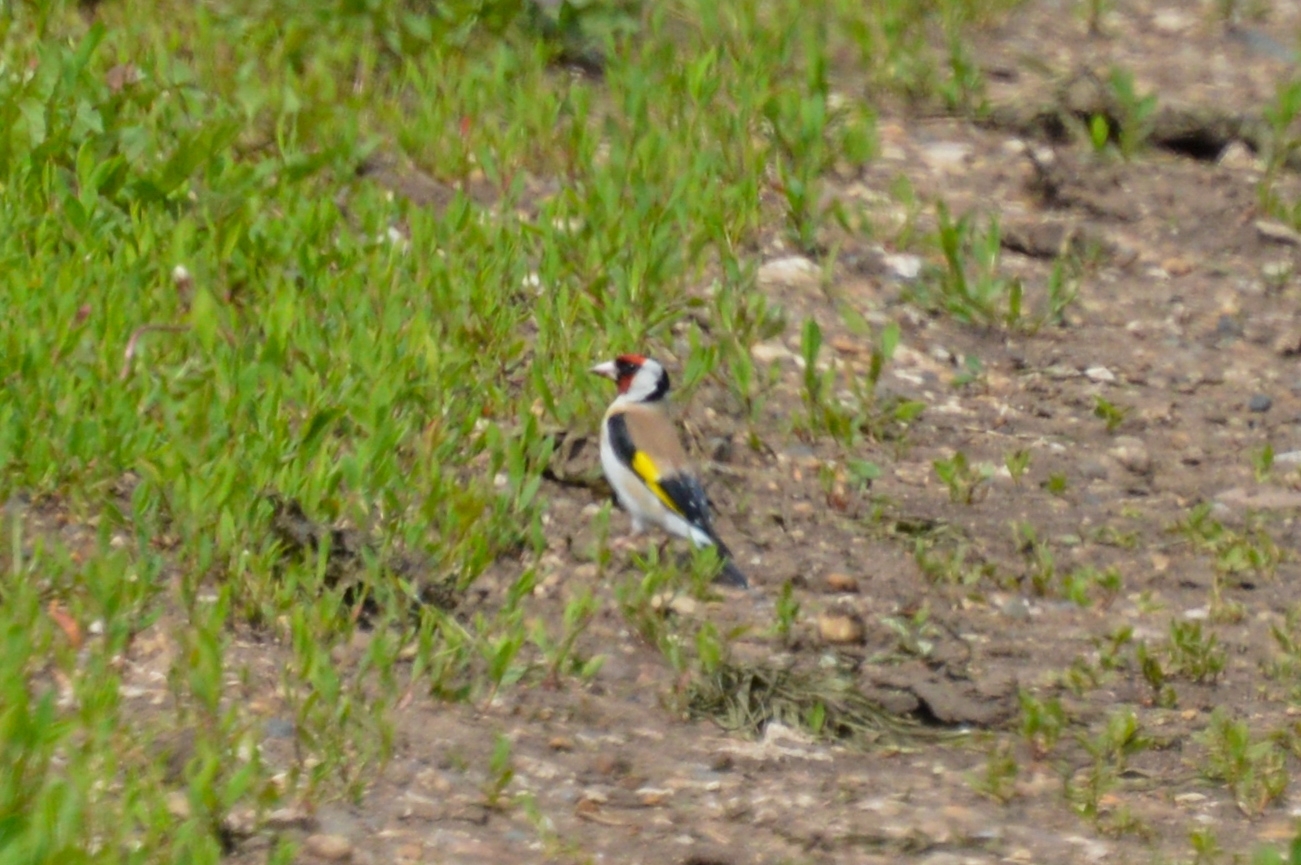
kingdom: Animalia
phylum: Chordata
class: Aves
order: Passeriformes
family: Fringillidae
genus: Carduelis
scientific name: Carduelis carduelis
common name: European goldfinch
